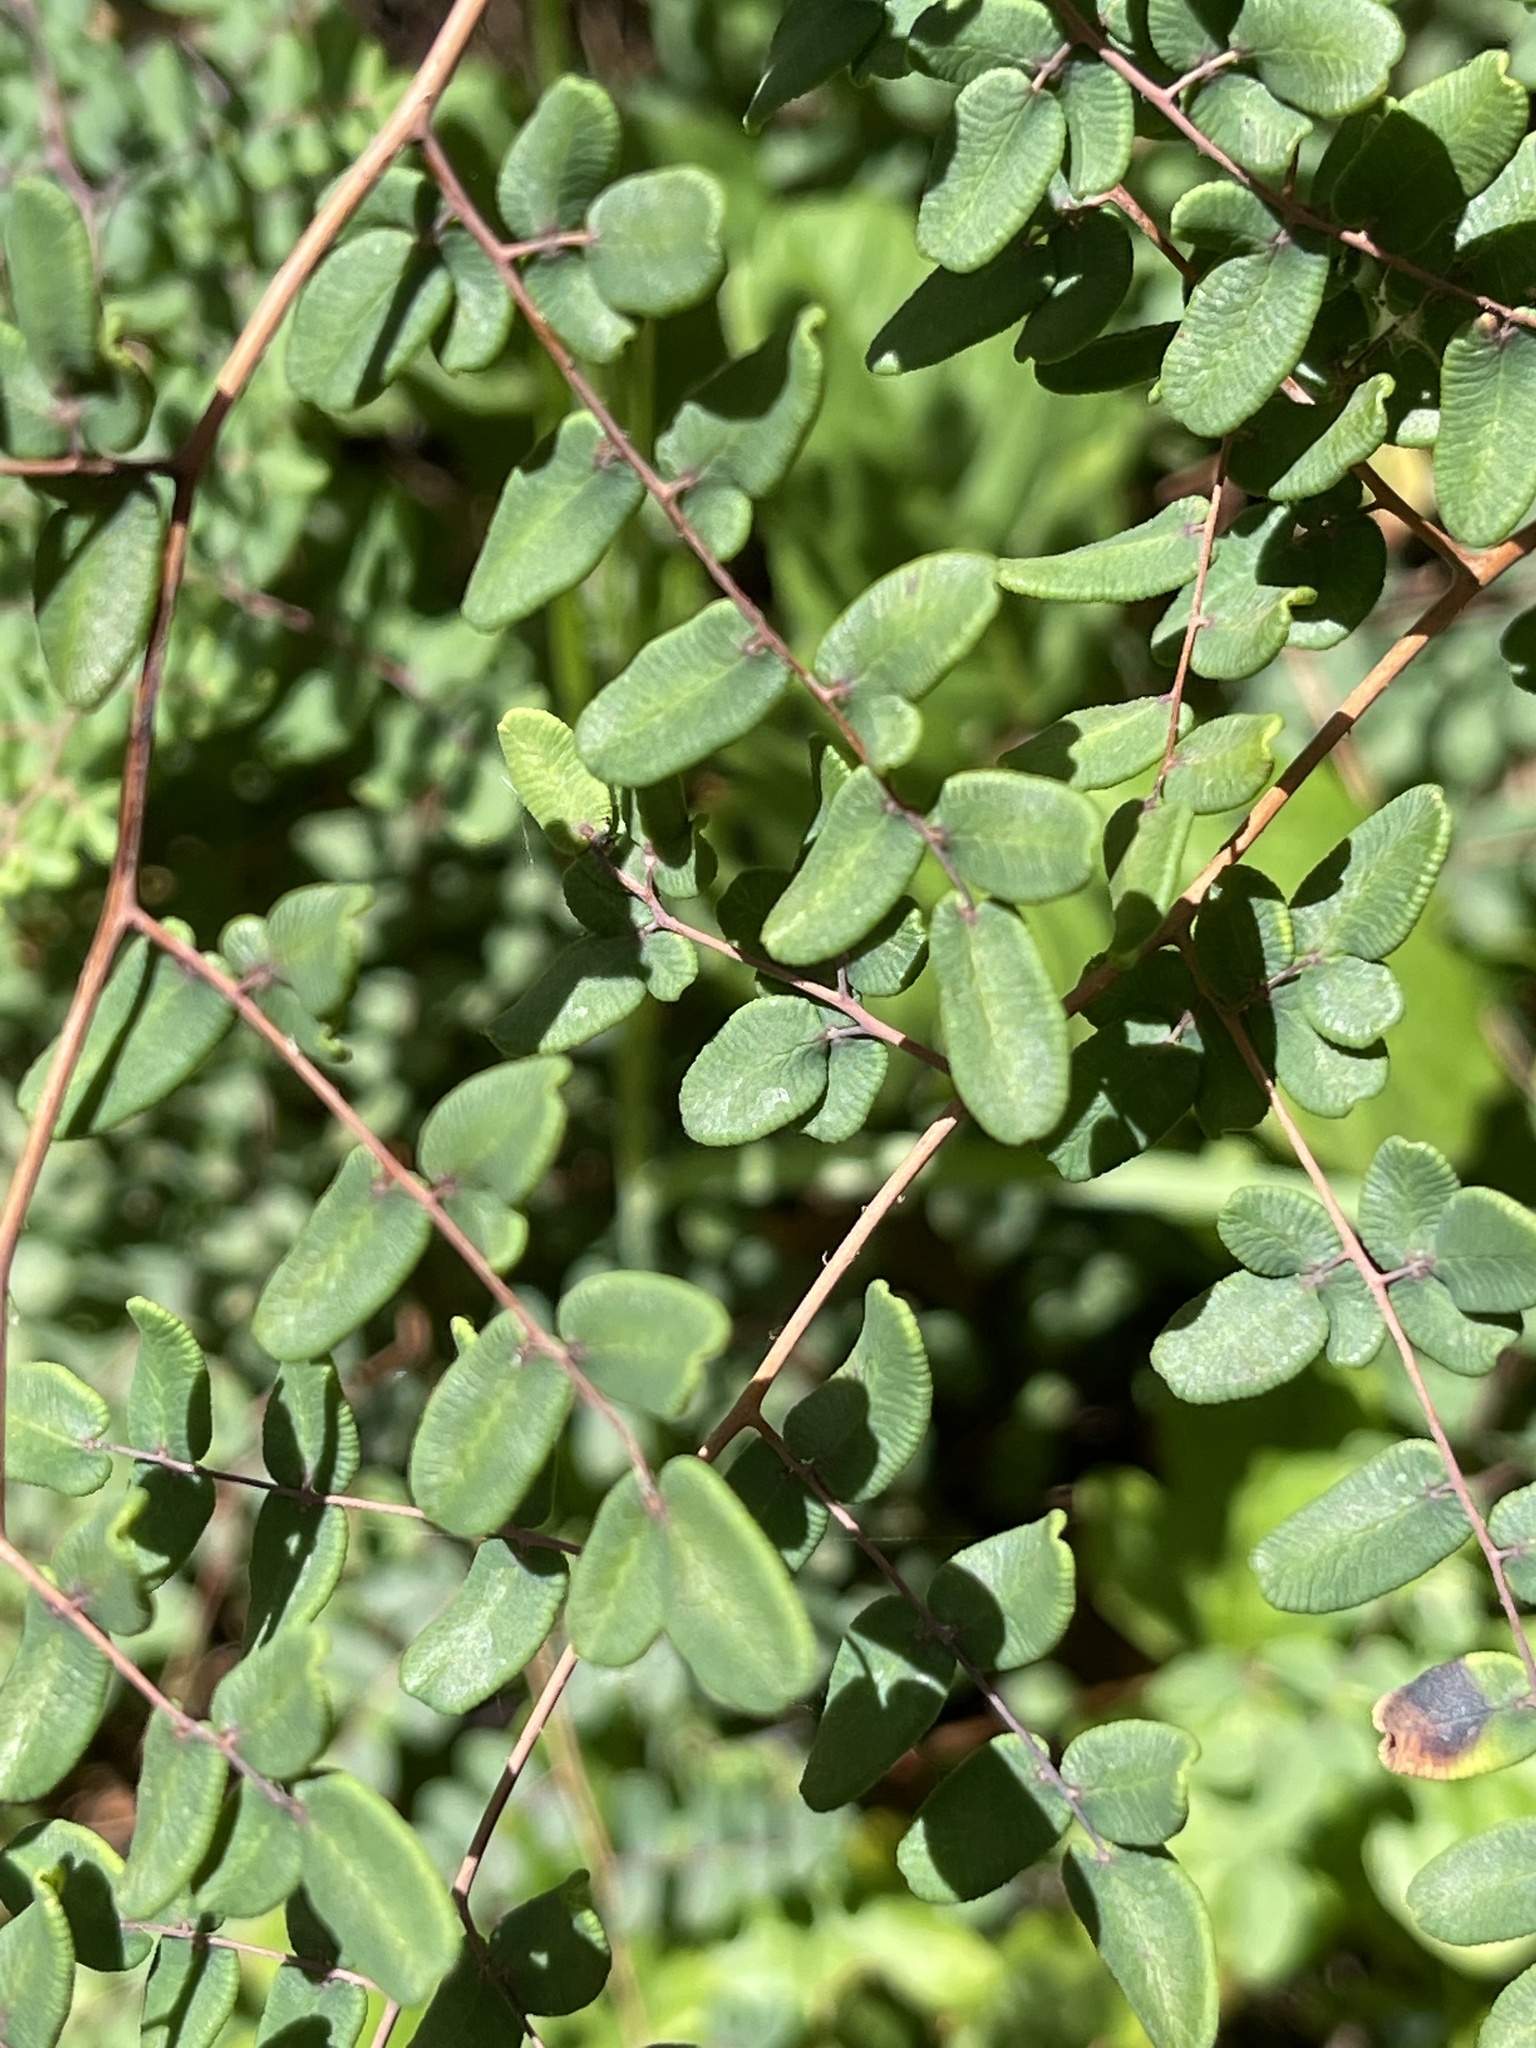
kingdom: Plantae
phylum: Tracheophyta
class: Polypodiopsida
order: Polypodiales
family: Pteridaceae
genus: Pellaea
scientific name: Pellaea andromedifolia
